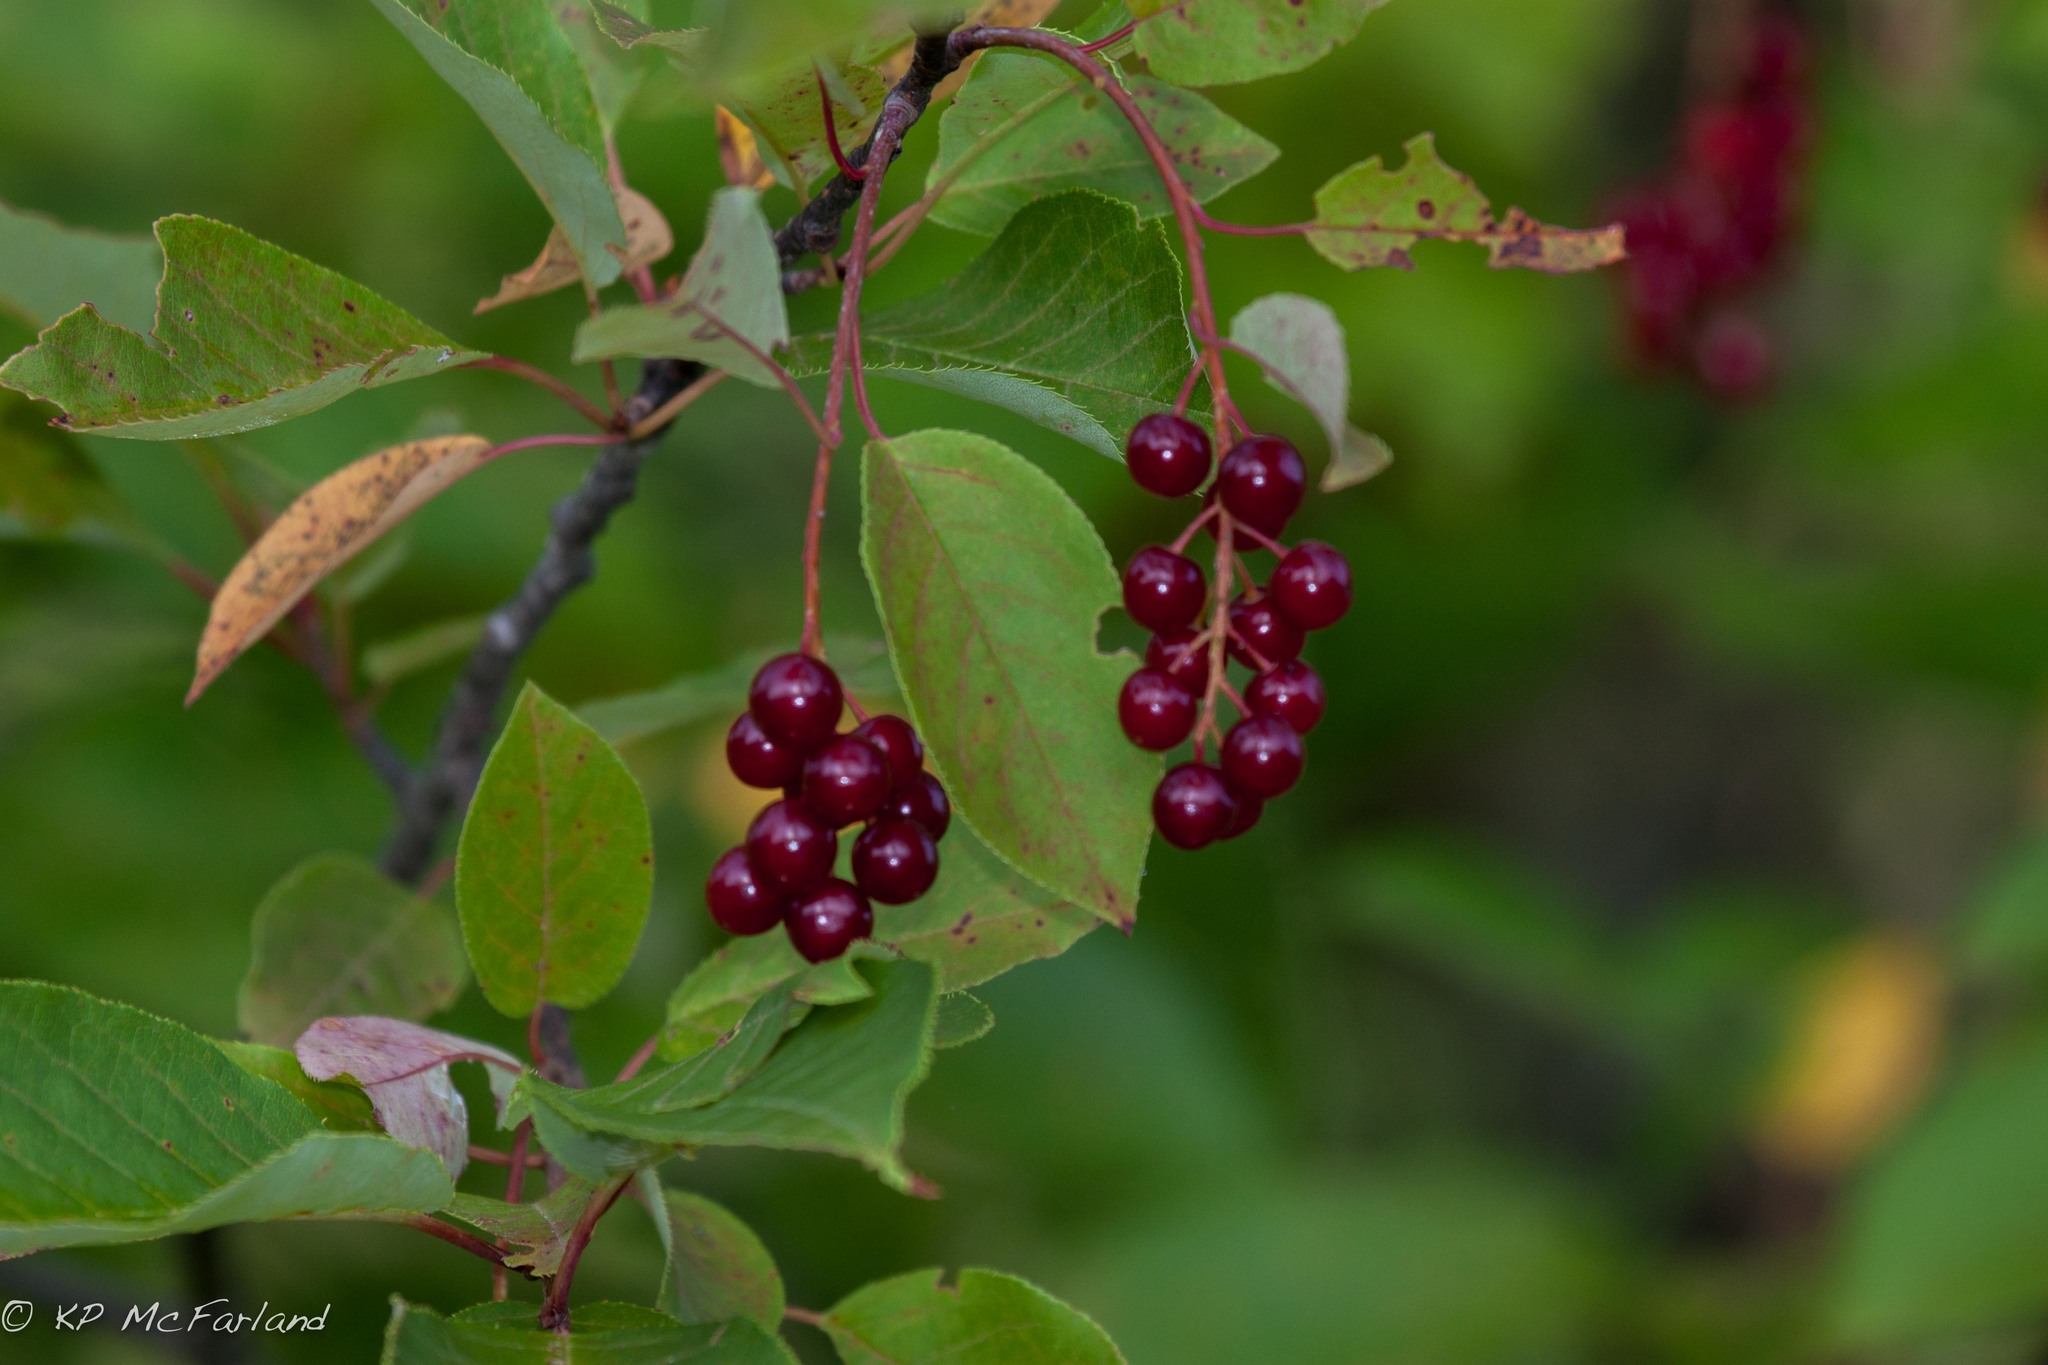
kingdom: Plantae
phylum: Tracheophyta
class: Magnoliopsida
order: Rosales
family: Rosaceae
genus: Prunus
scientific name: Prunus virginiana
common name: Chokecherry
